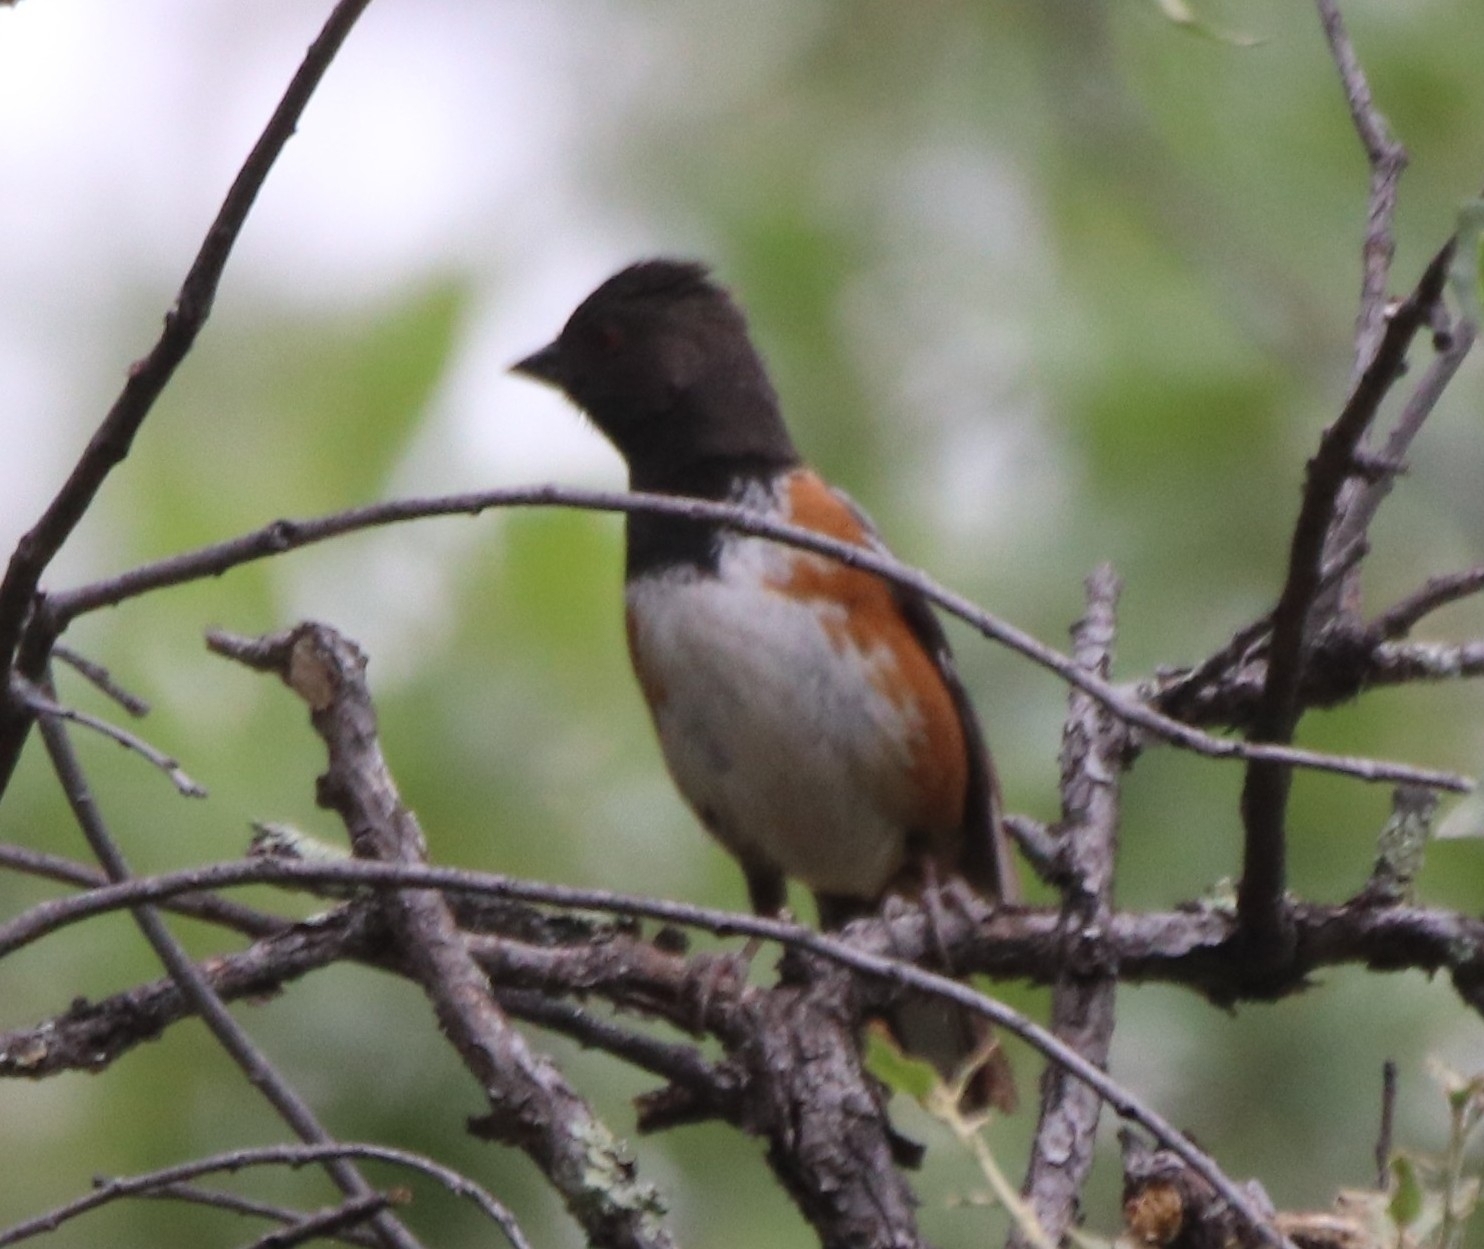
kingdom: Animalia
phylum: Chordata
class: Aves
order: Passeriformes
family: Passerellidae
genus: Pipilo
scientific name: Pipilo maculatus
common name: Spotted towhee
